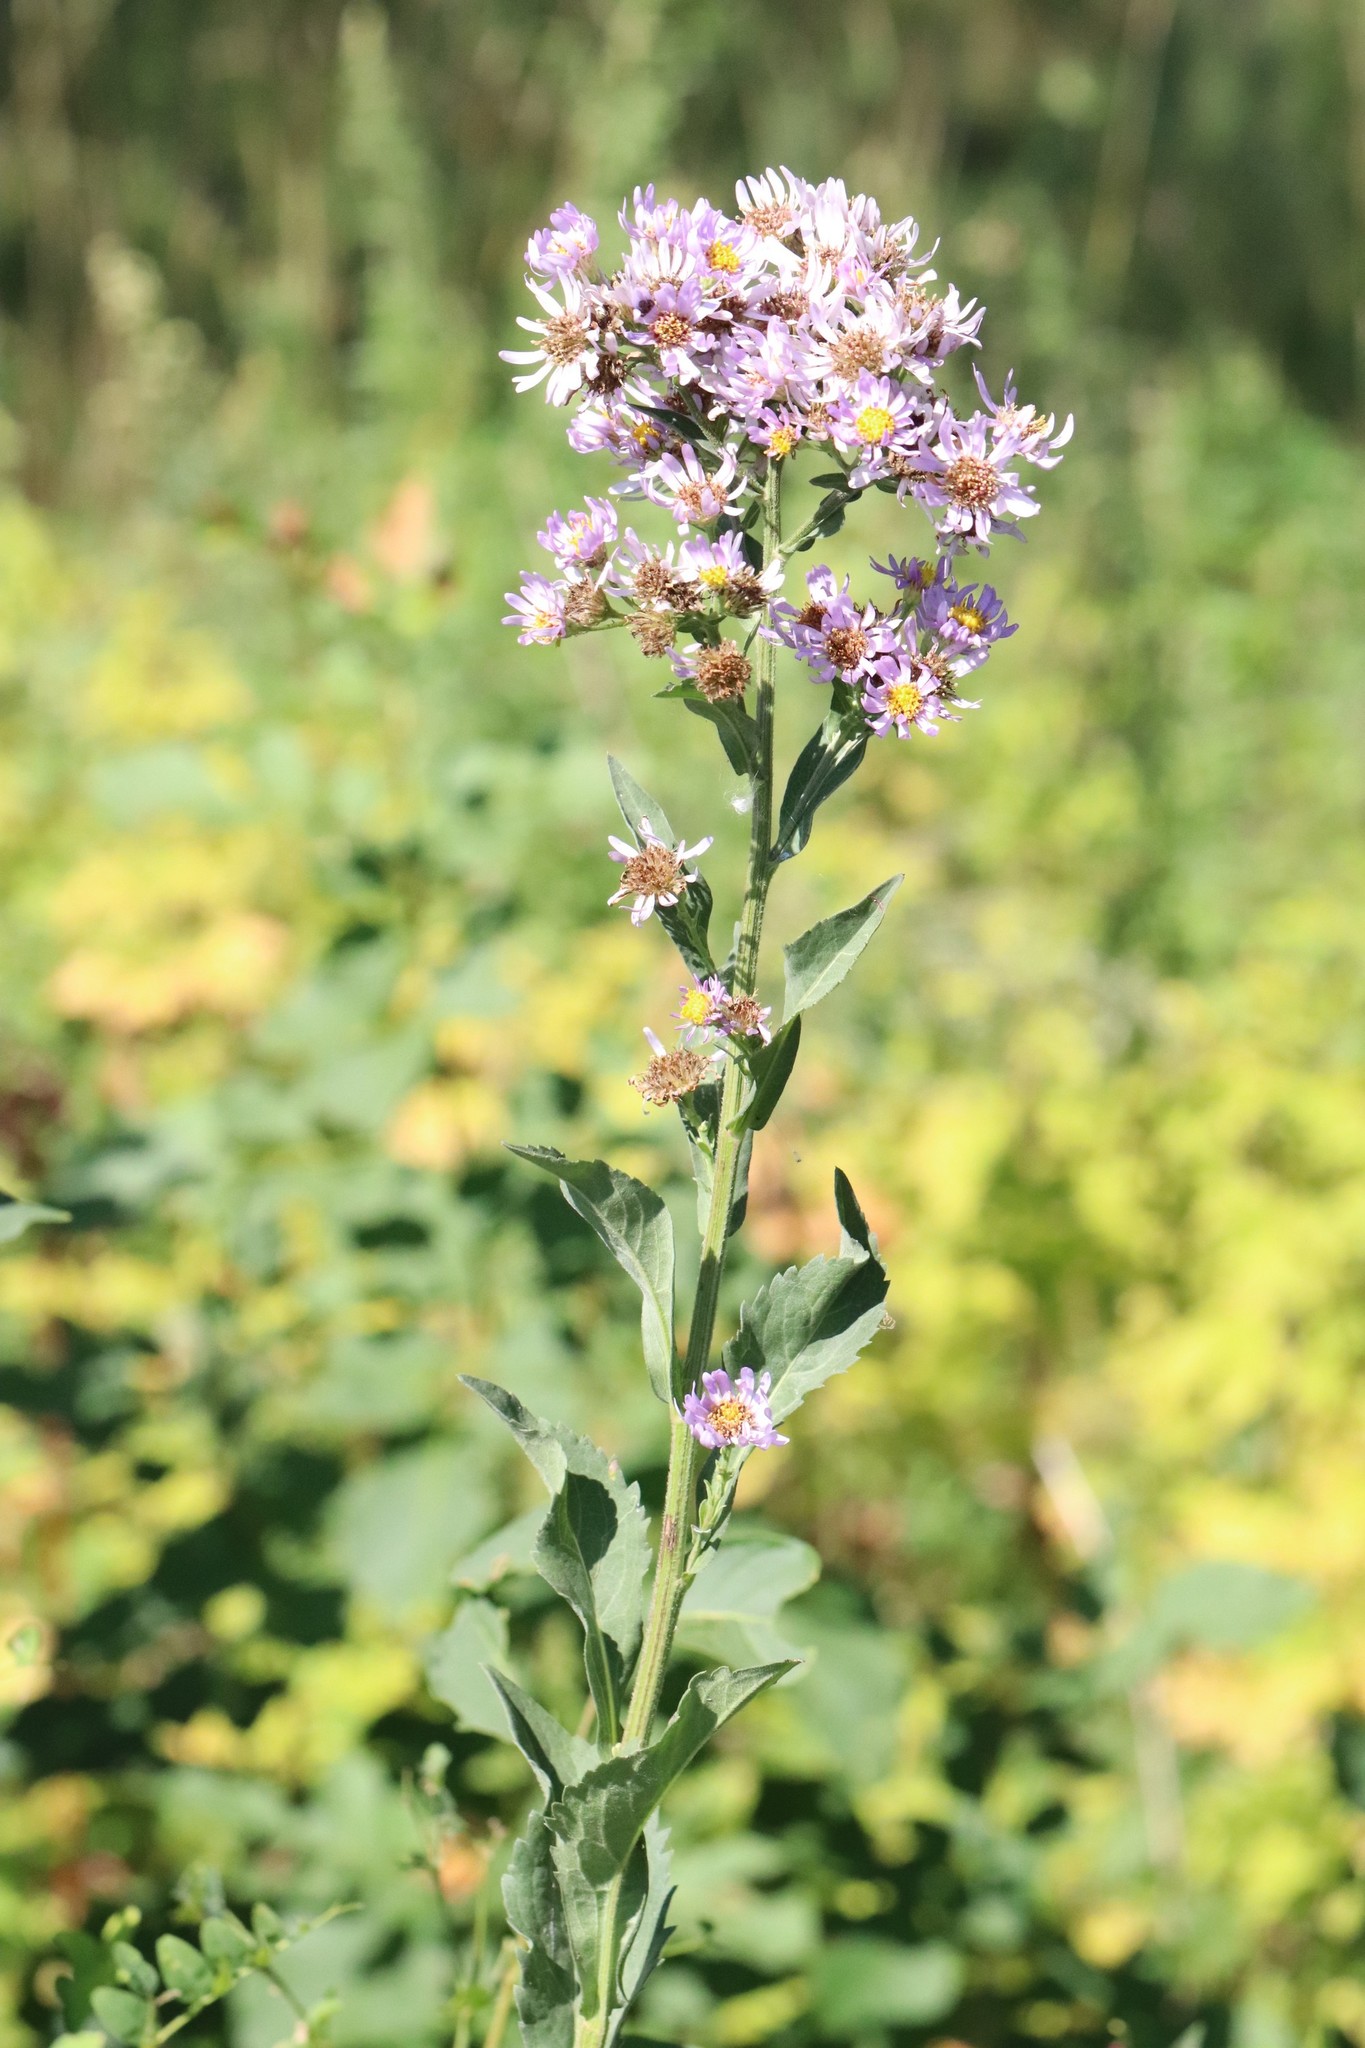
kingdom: Plantae
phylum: Tracheophyta
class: Magnoliopsida
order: Asterales
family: Asteraceae
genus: Aster
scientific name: Aster tataricus
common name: Tatarian aster
